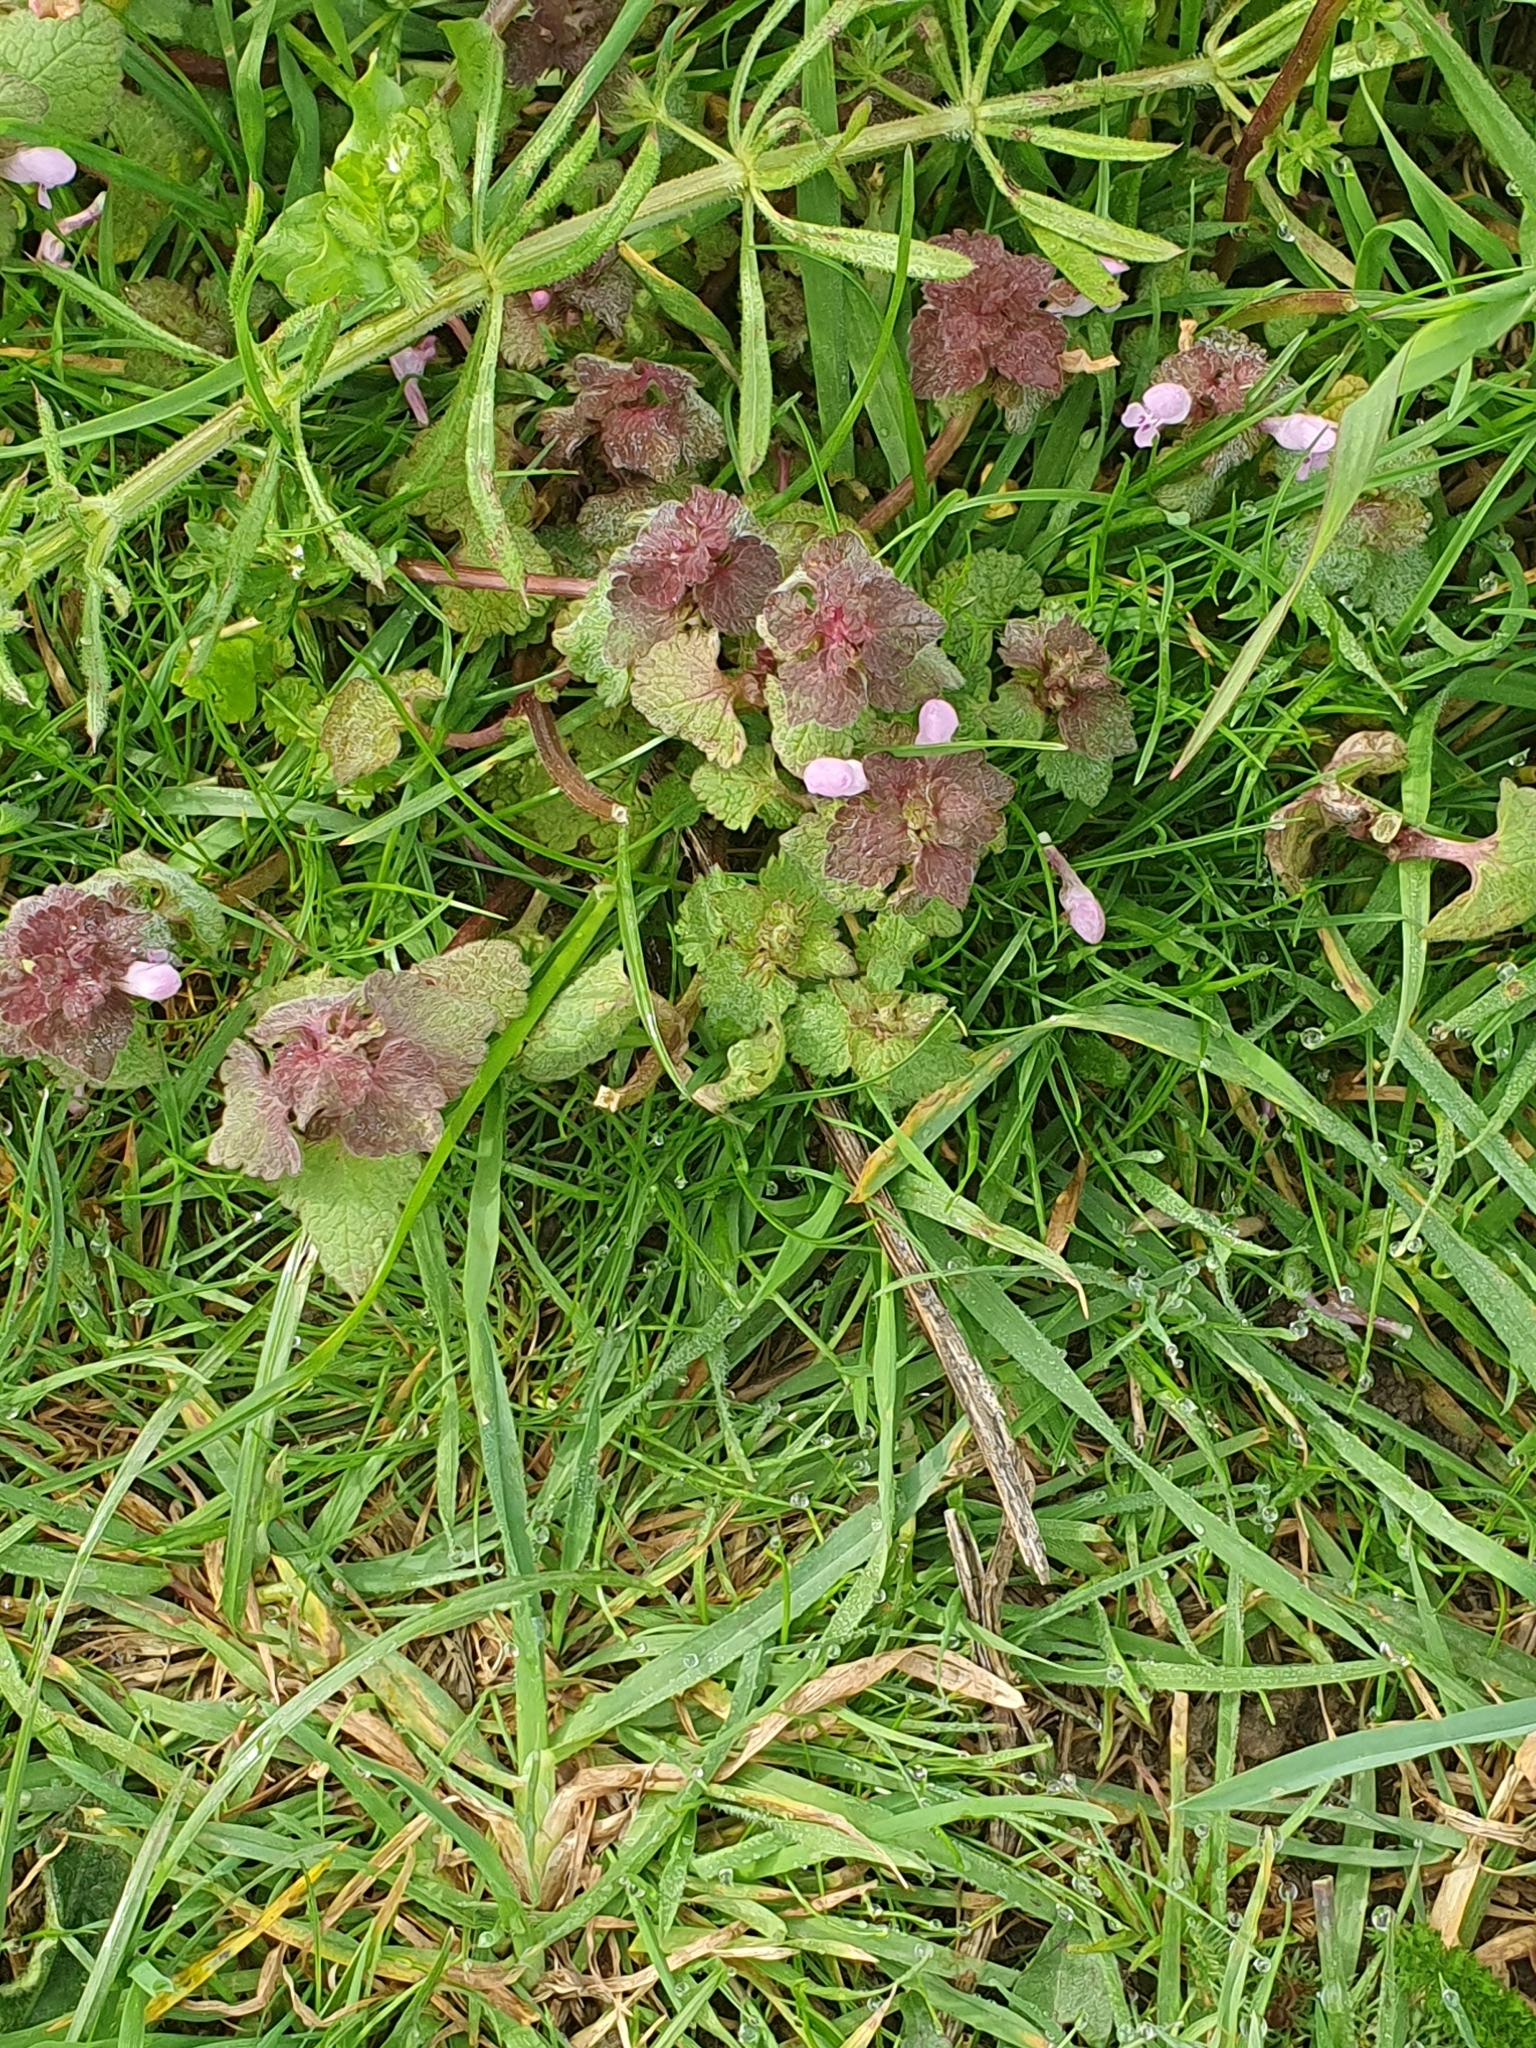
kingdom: Plantae
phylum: Tracheophyta
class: Magnoliopsida
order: Lamiales
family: Lamiaceae
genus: Lamium
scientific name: Lamium purpureum
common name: Red dead-nettle
